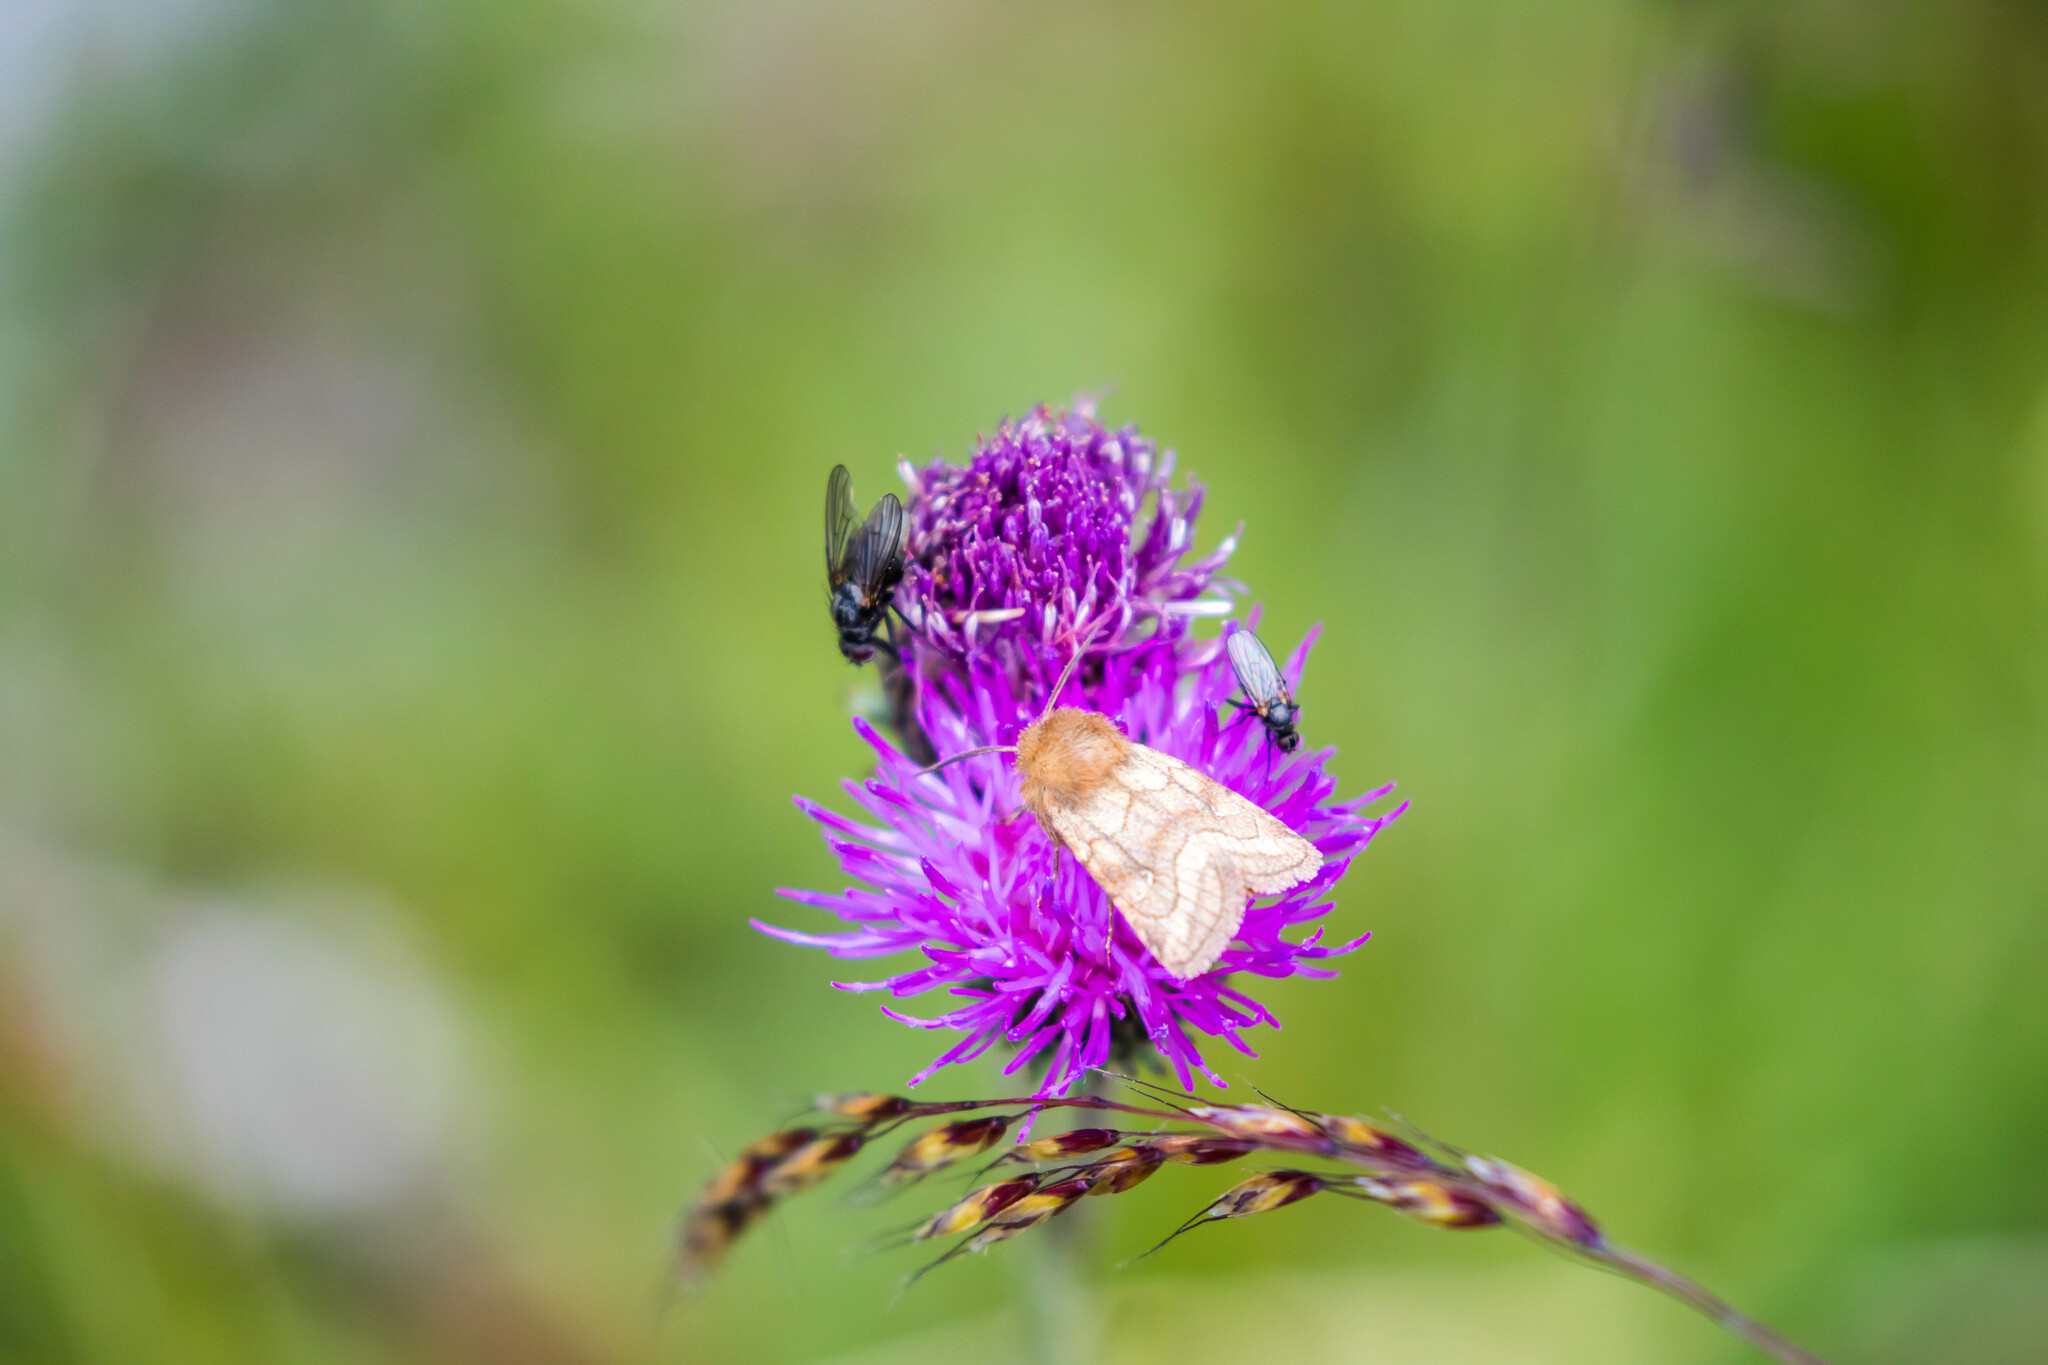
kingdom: Animalia
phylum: Arthropoda
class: Insecta
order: Lepidoptera
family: Noctuidae
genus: Lasionycta
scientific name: Lasionycta Eriopygodes imbecillus
